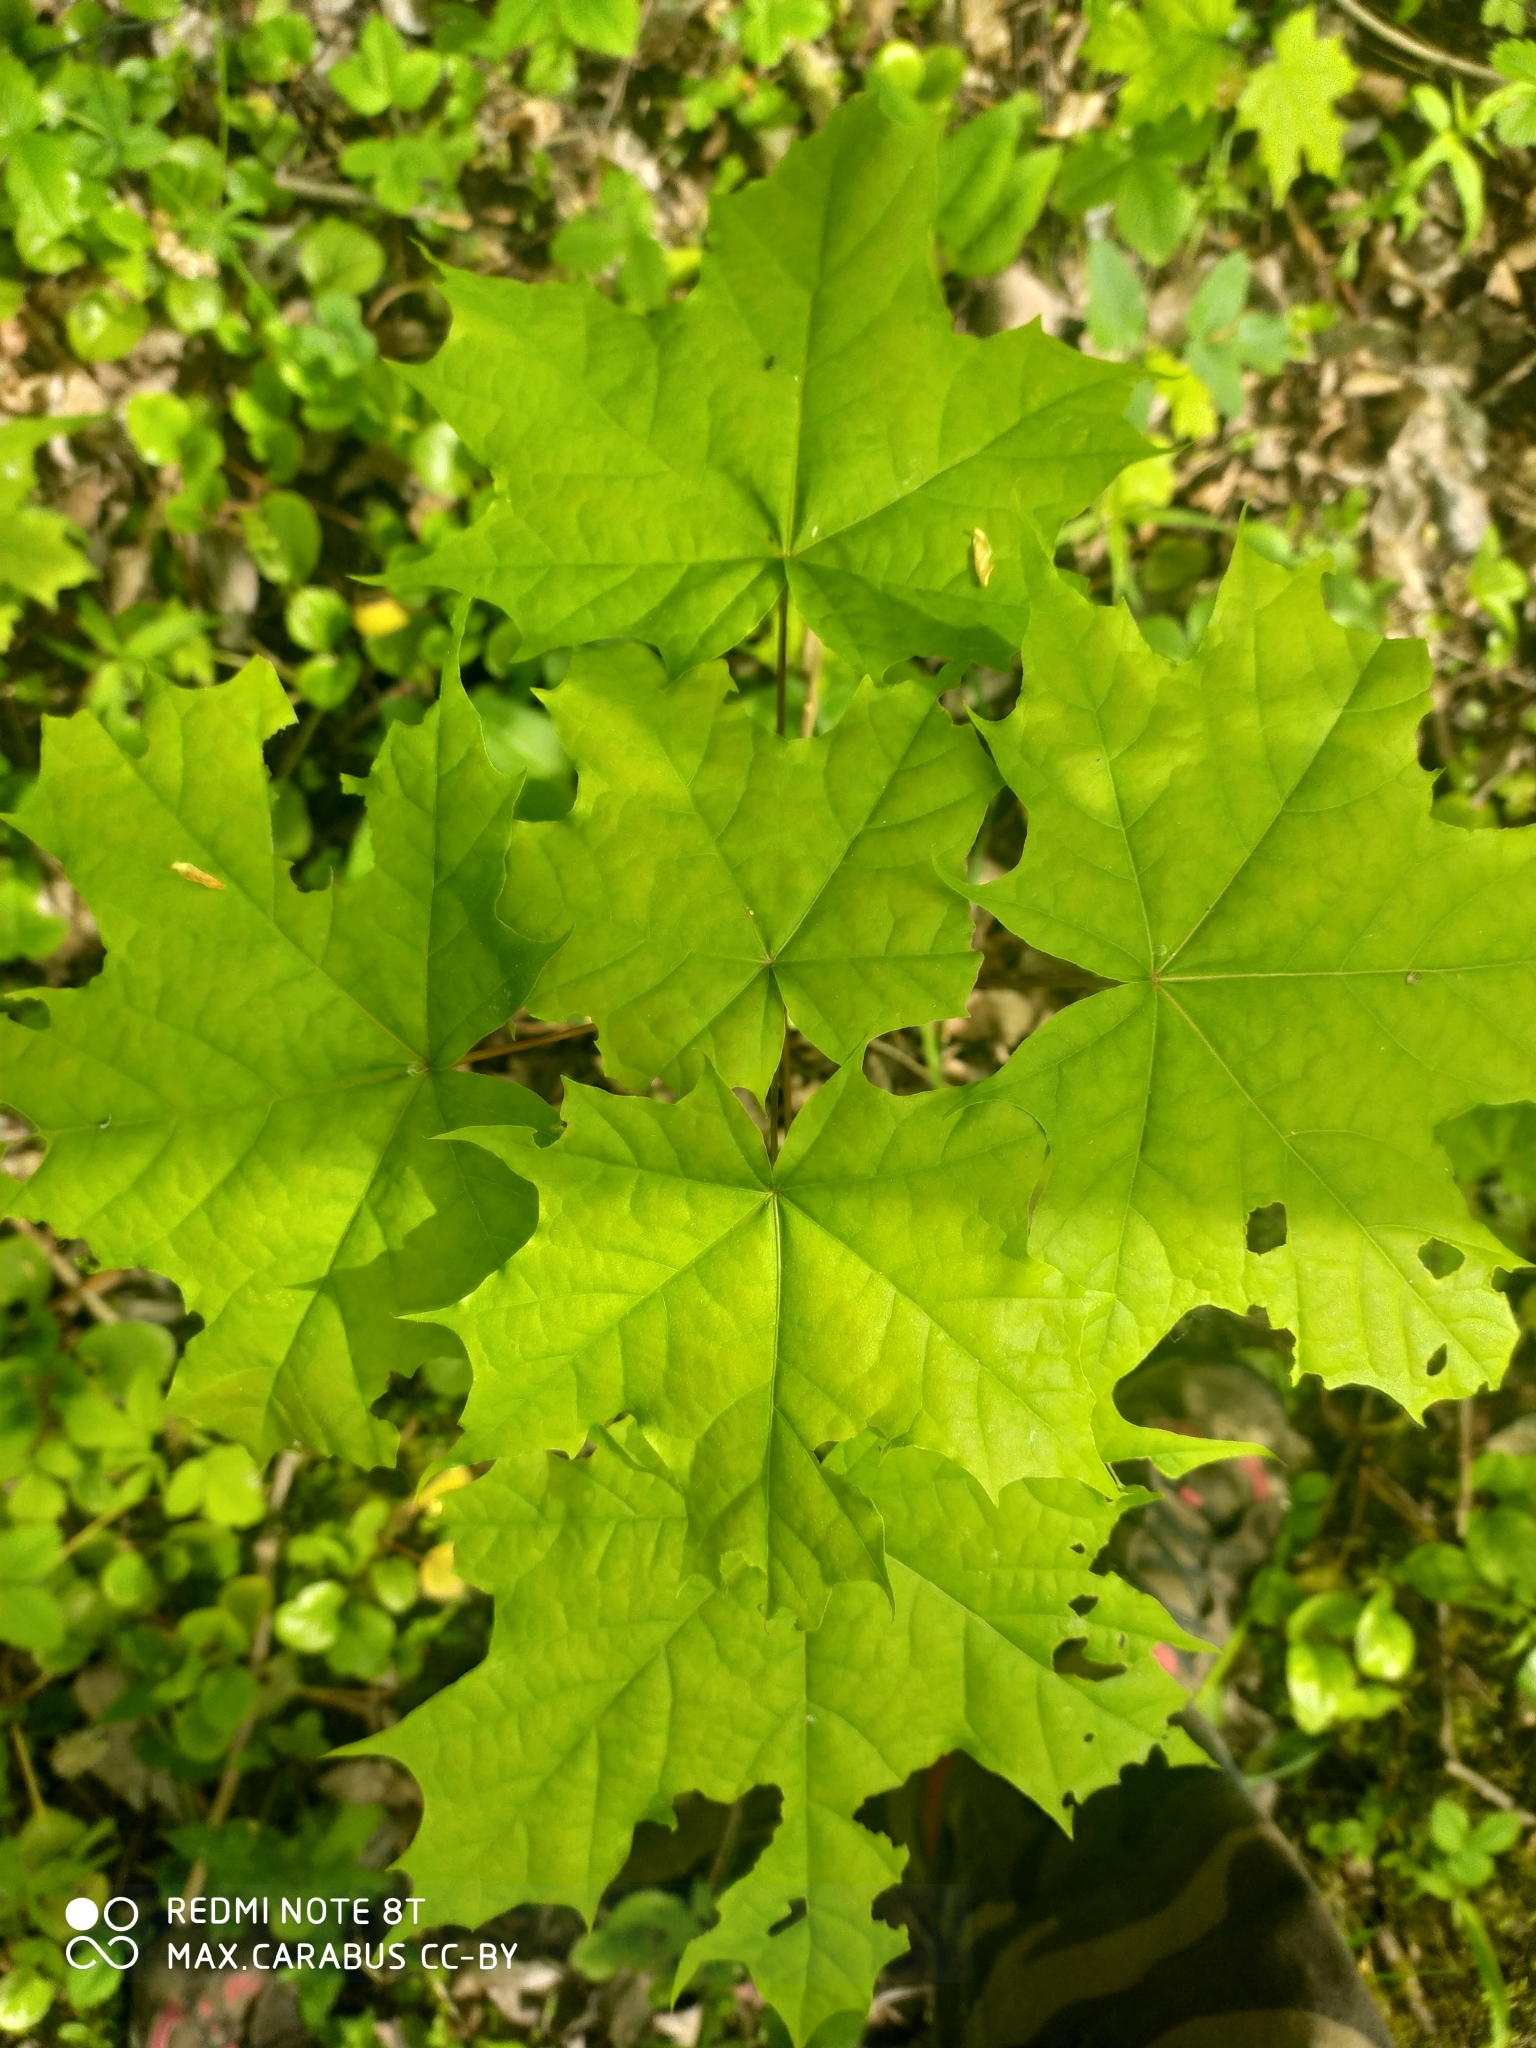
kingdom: Plantae
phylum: Tracheophyta
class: Magnoliopsida
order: Sapindales
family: Sapindaceae
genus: Acer
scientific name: Acer platanoides
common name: Norway maple
